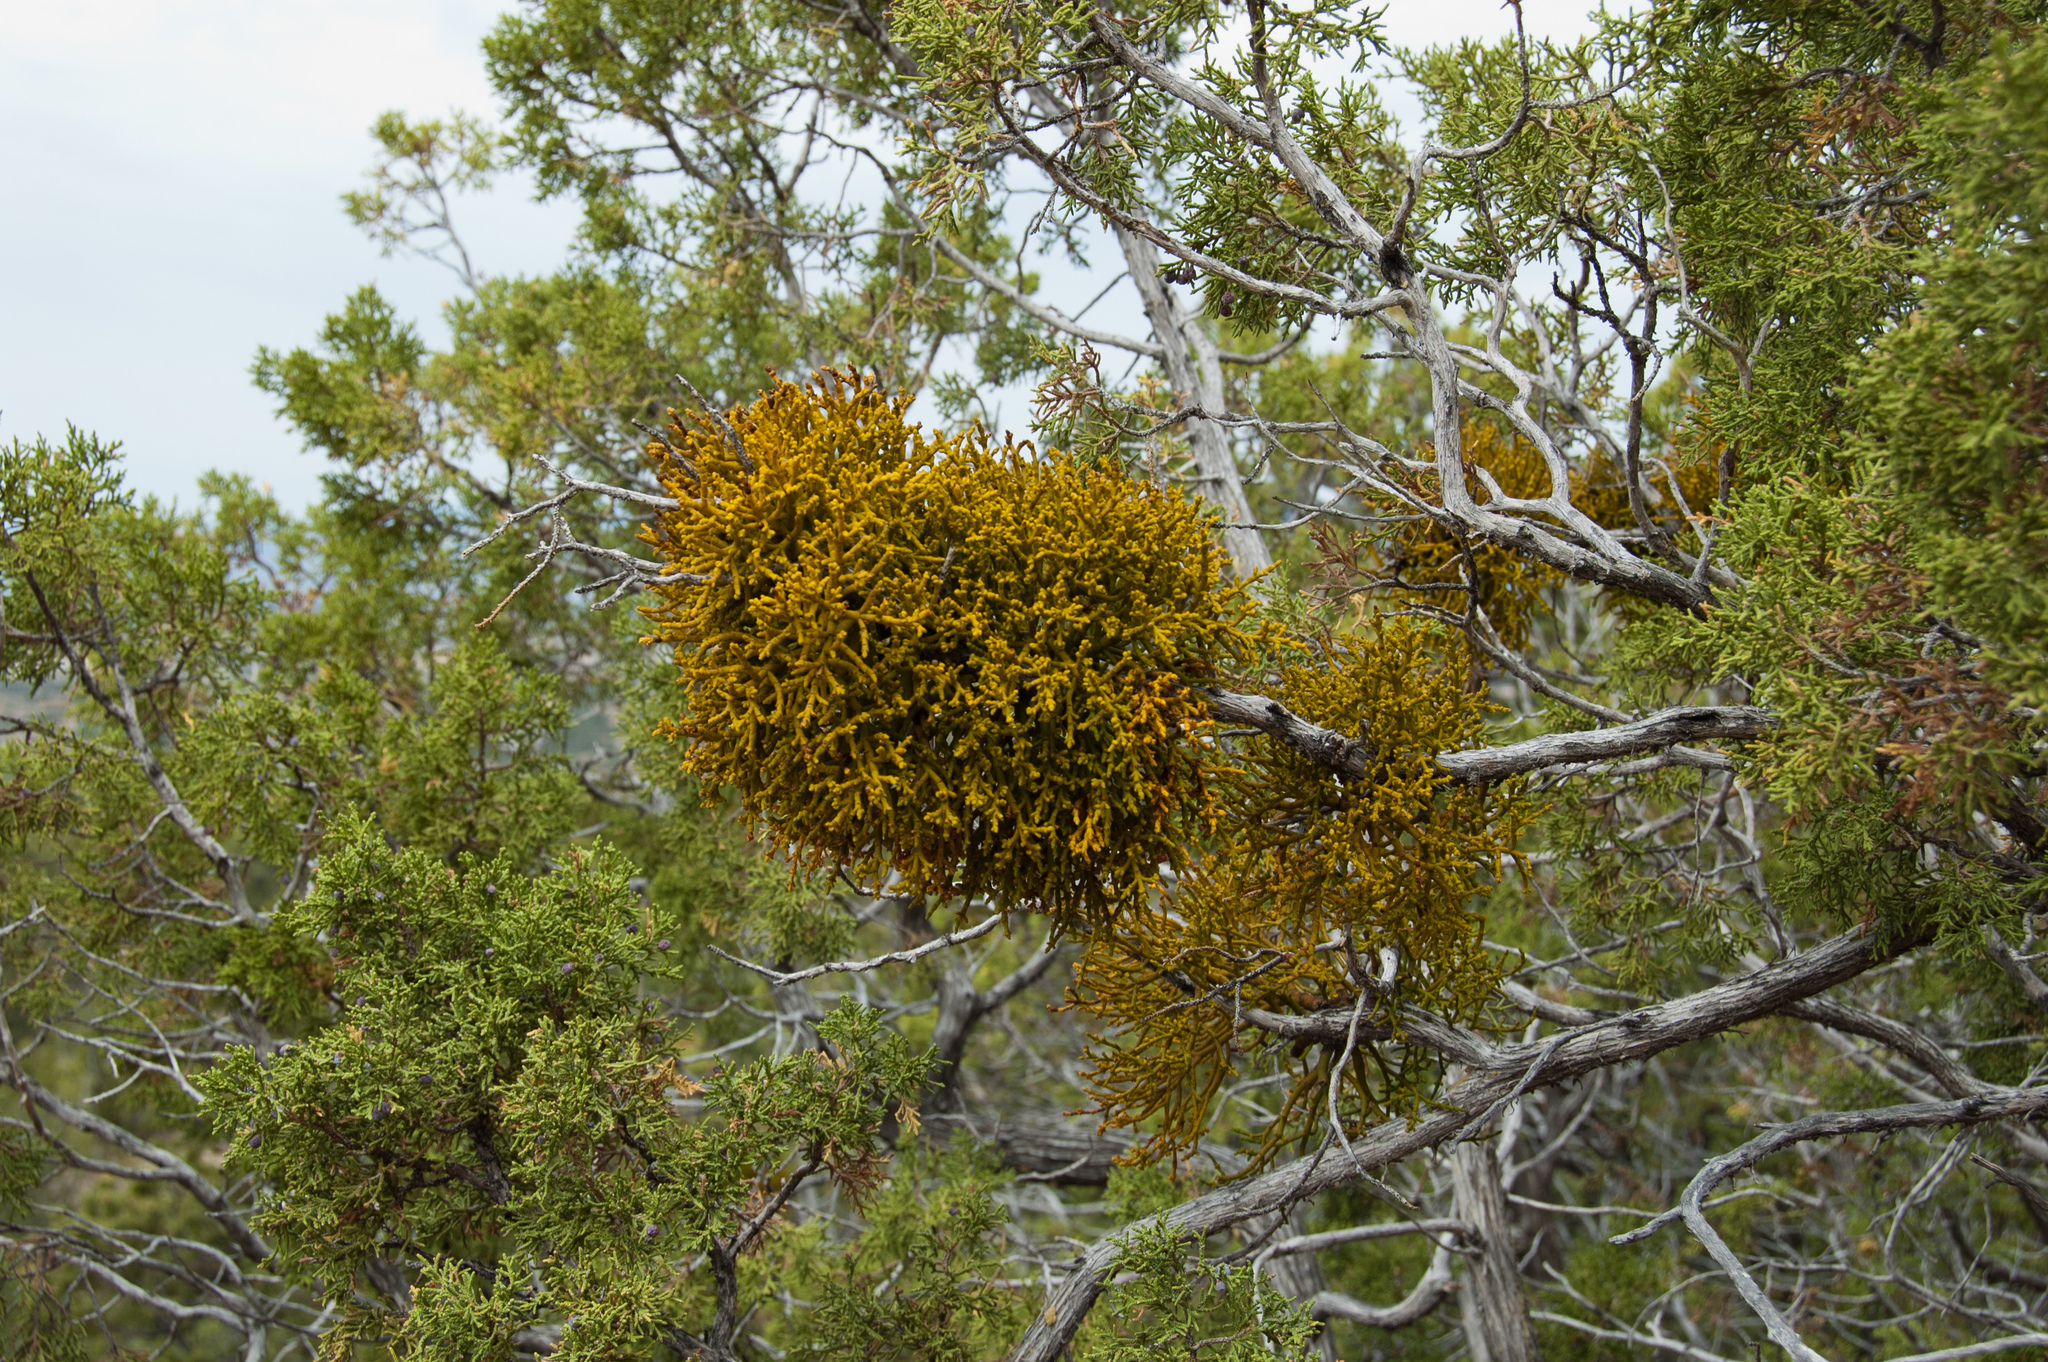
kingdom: Plantae
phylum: Tracheophyta
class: Magnoliopsida
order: Santalales
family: Viscaceae
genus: Phoradendron
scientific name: Phoradendron juniperinum
